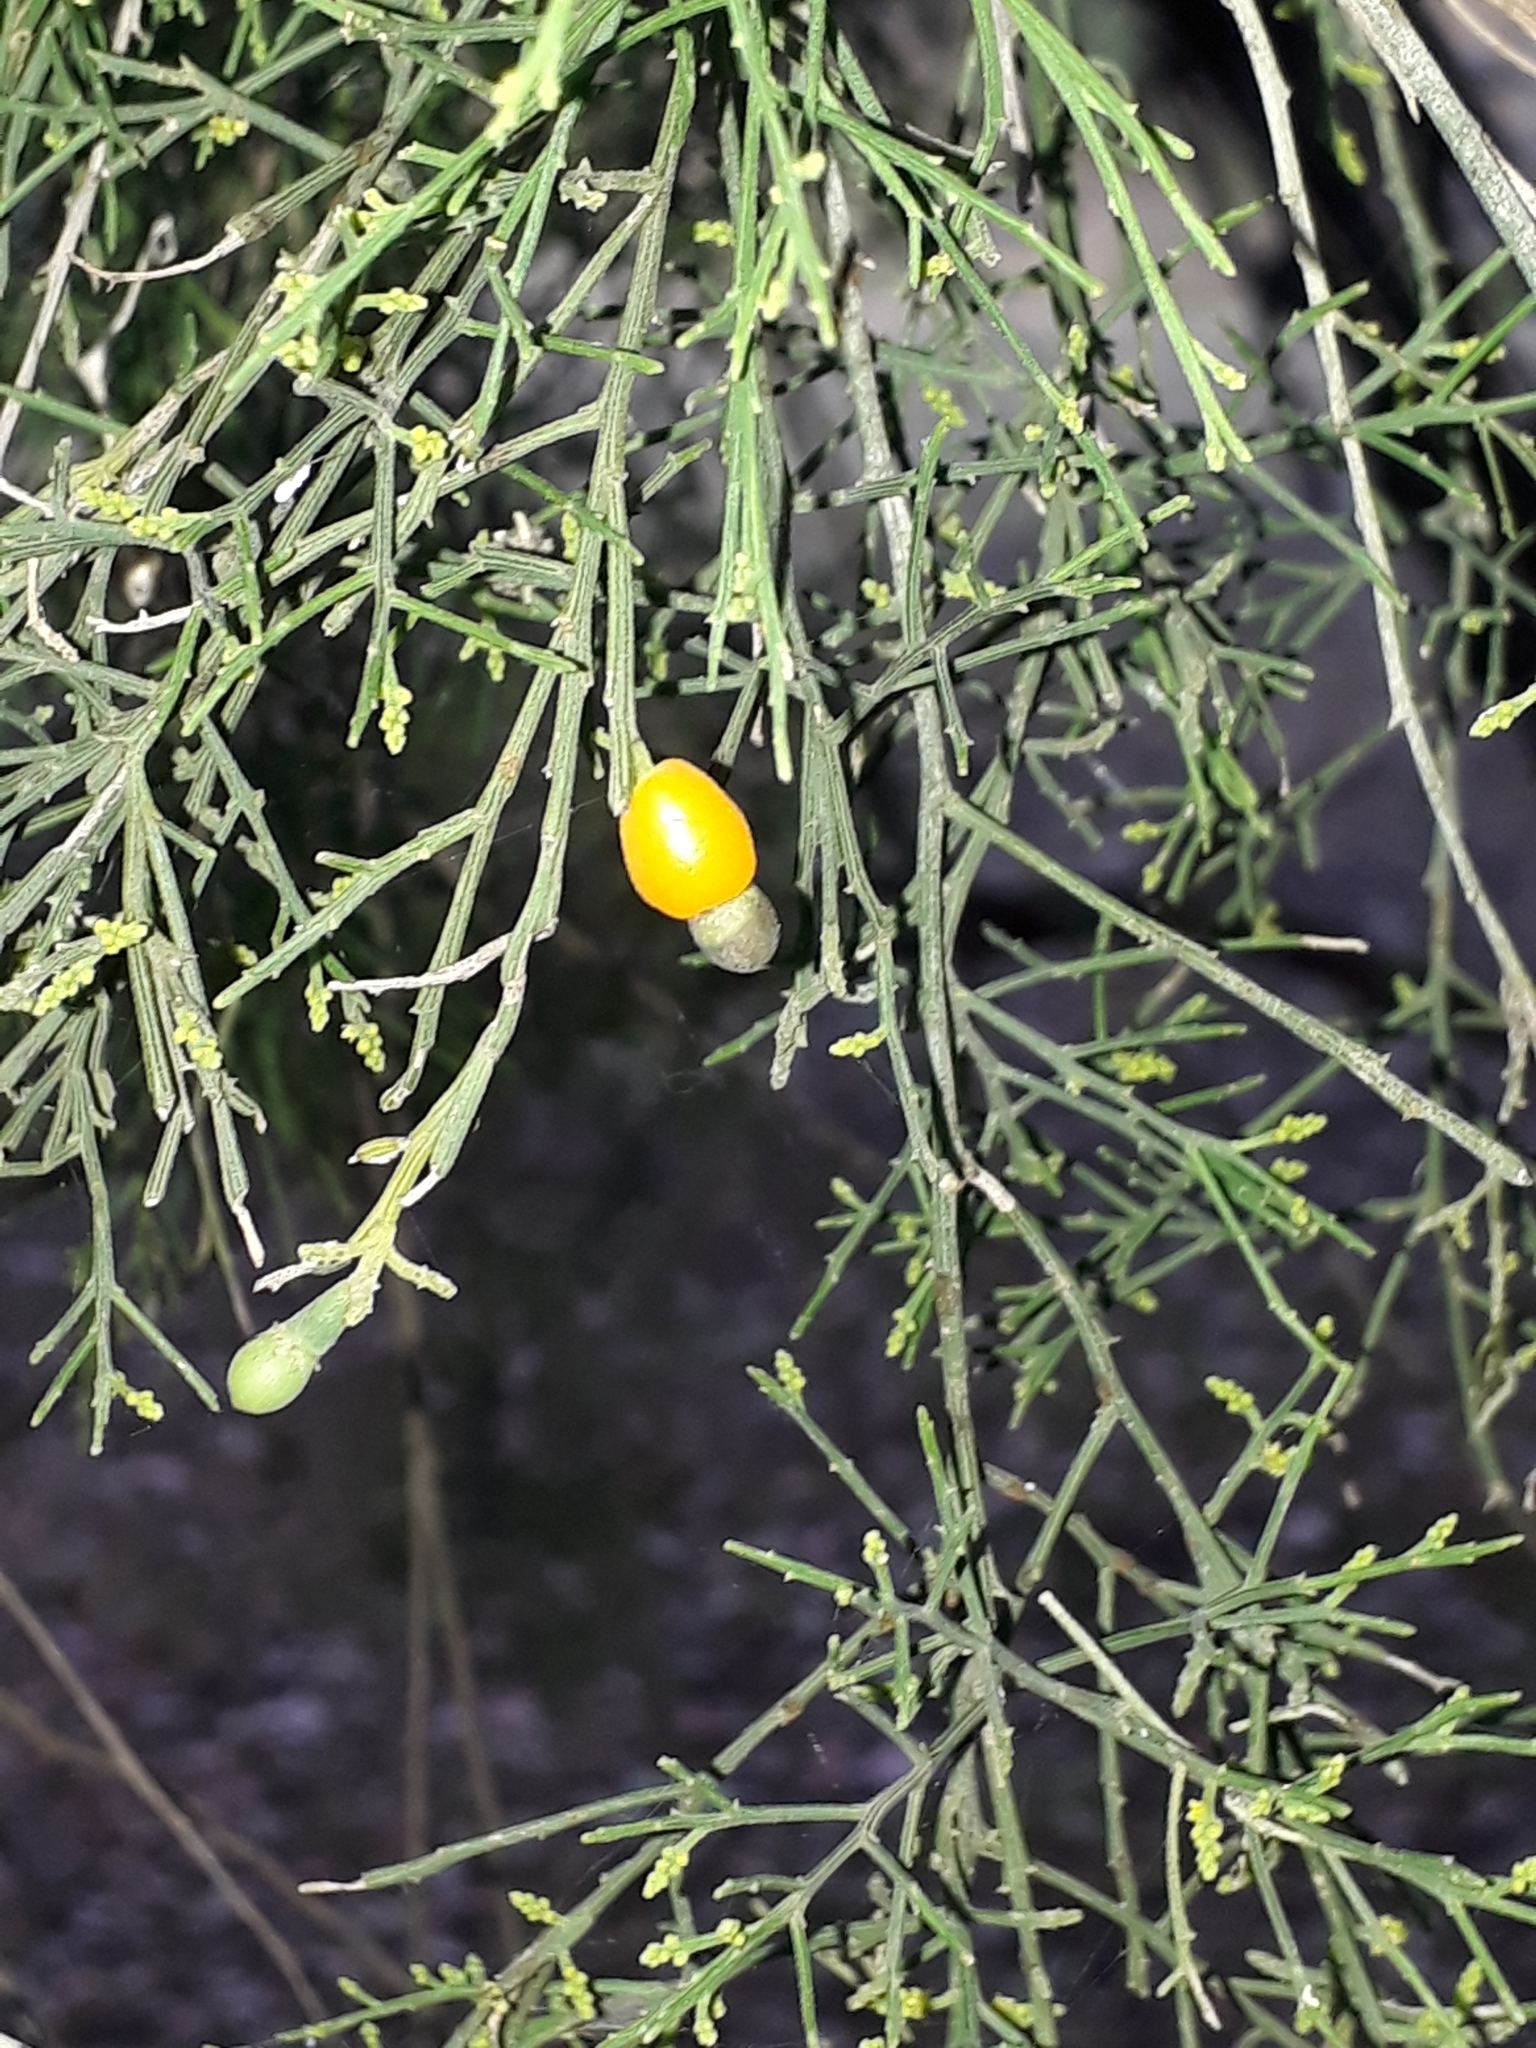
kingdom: Plantae
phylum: Tracheophyta
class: Magnoliopsida
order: Santalales
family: Santalaceae
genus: Exocarpos
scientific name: Exocarpos cupressiformis
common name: Cherry ballart
